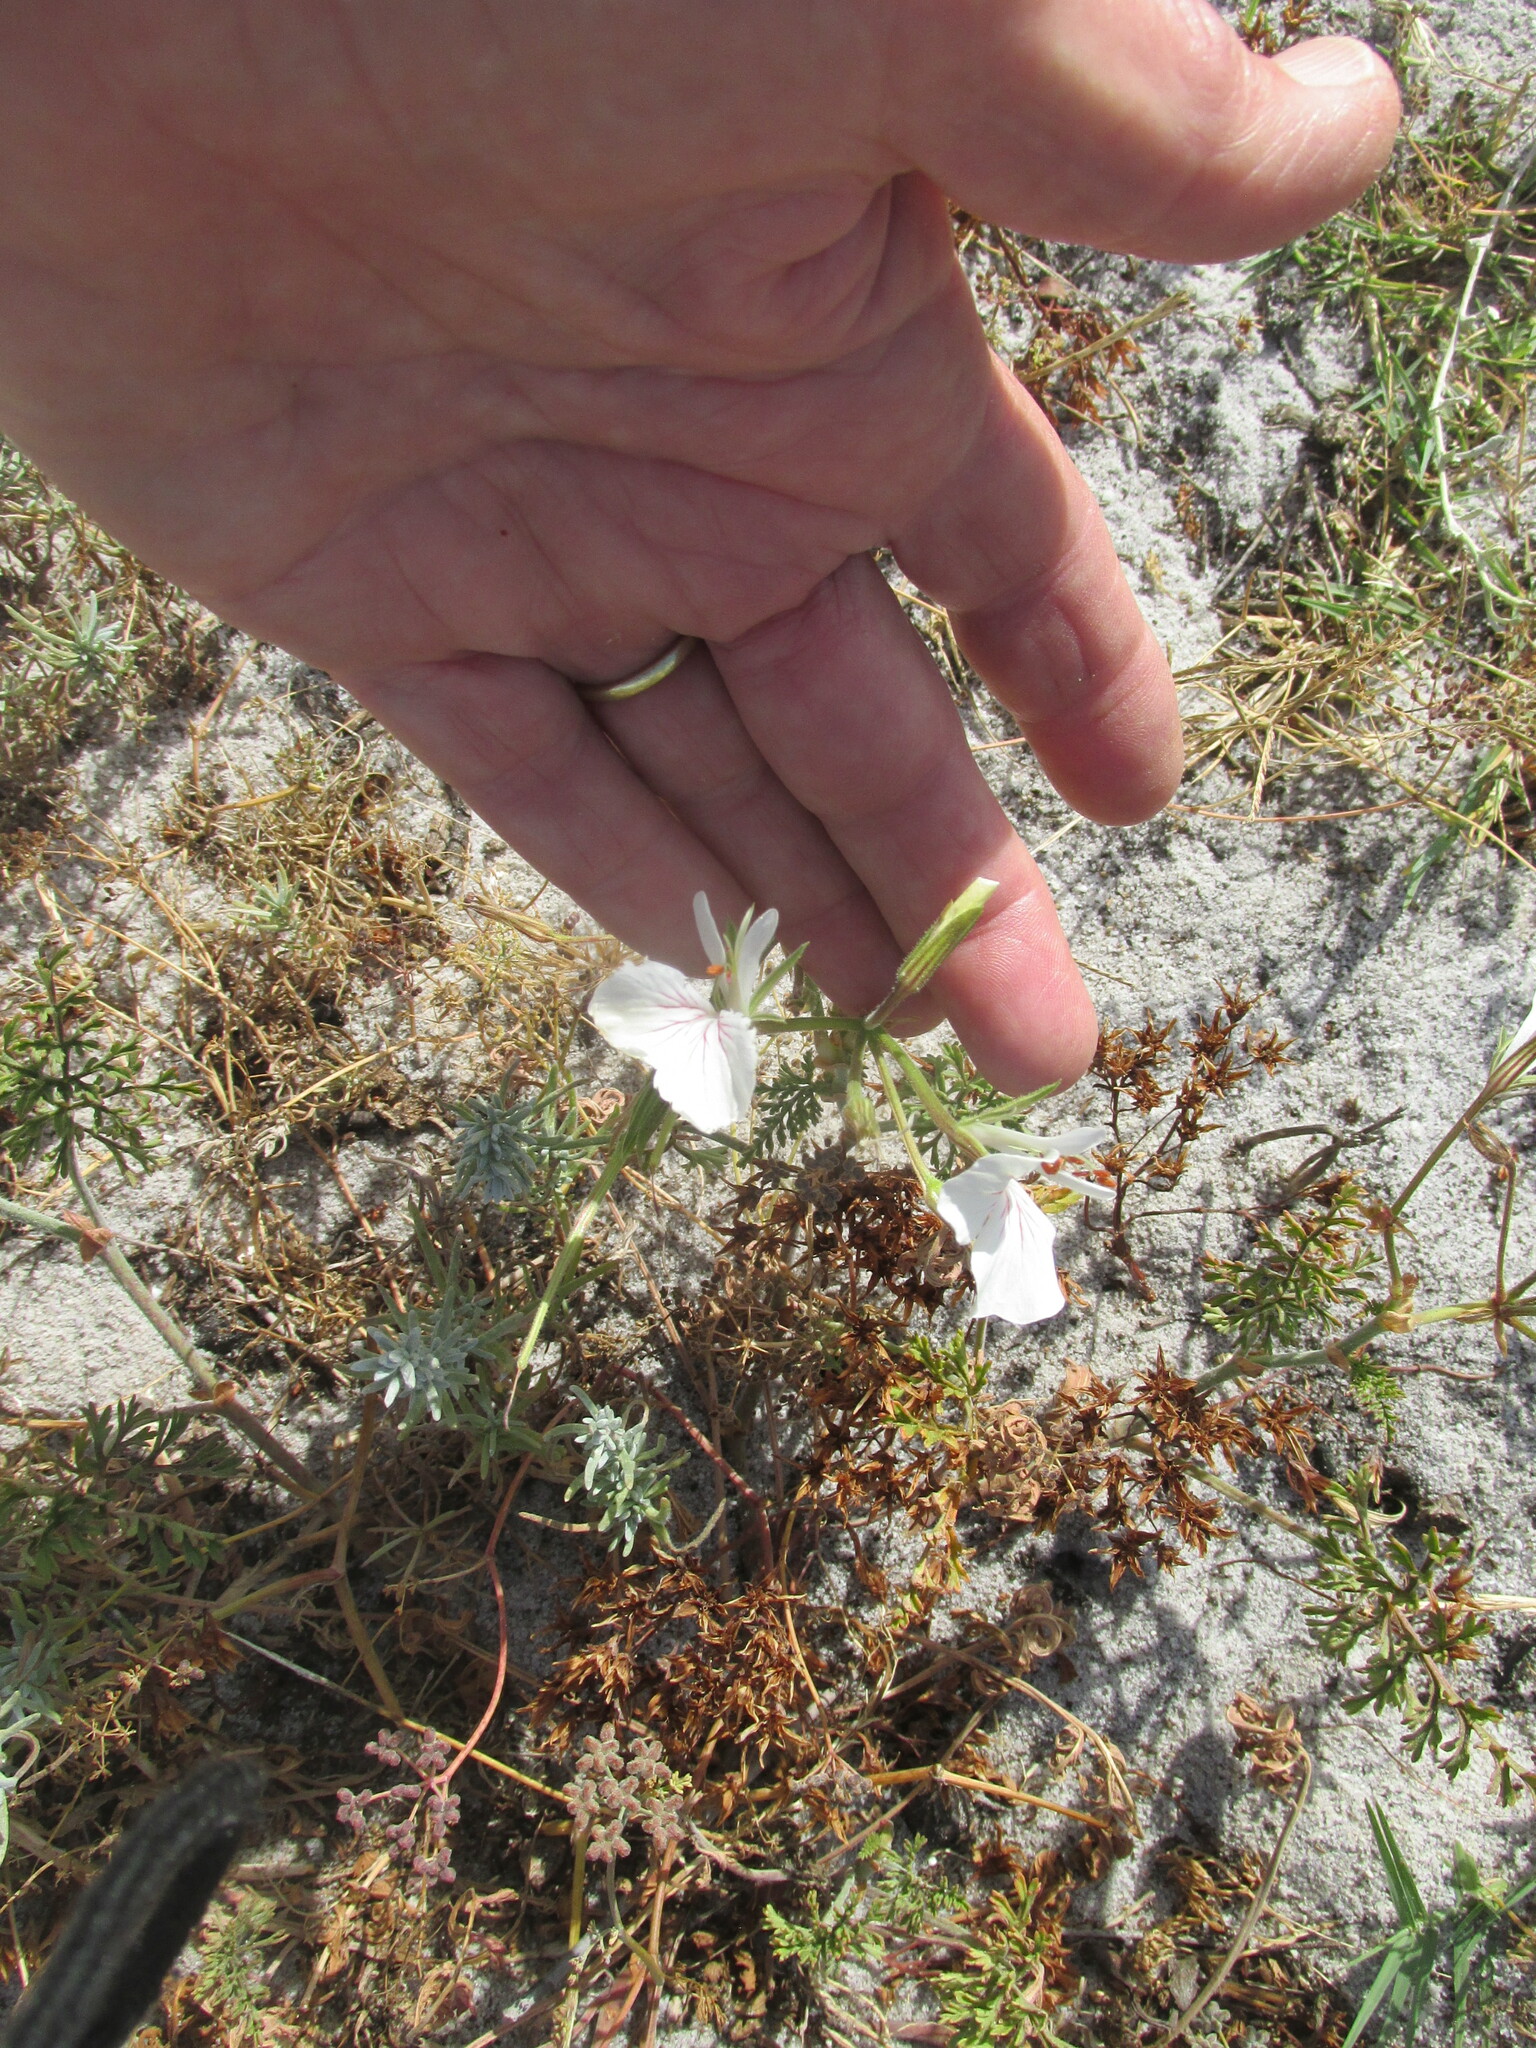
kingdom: Plantae
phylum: Tracheophyta
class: Magnoliopsida
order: Geraniales
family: Geraniaceae
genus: Pelargonium
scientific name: Pelargonium suburbanum
